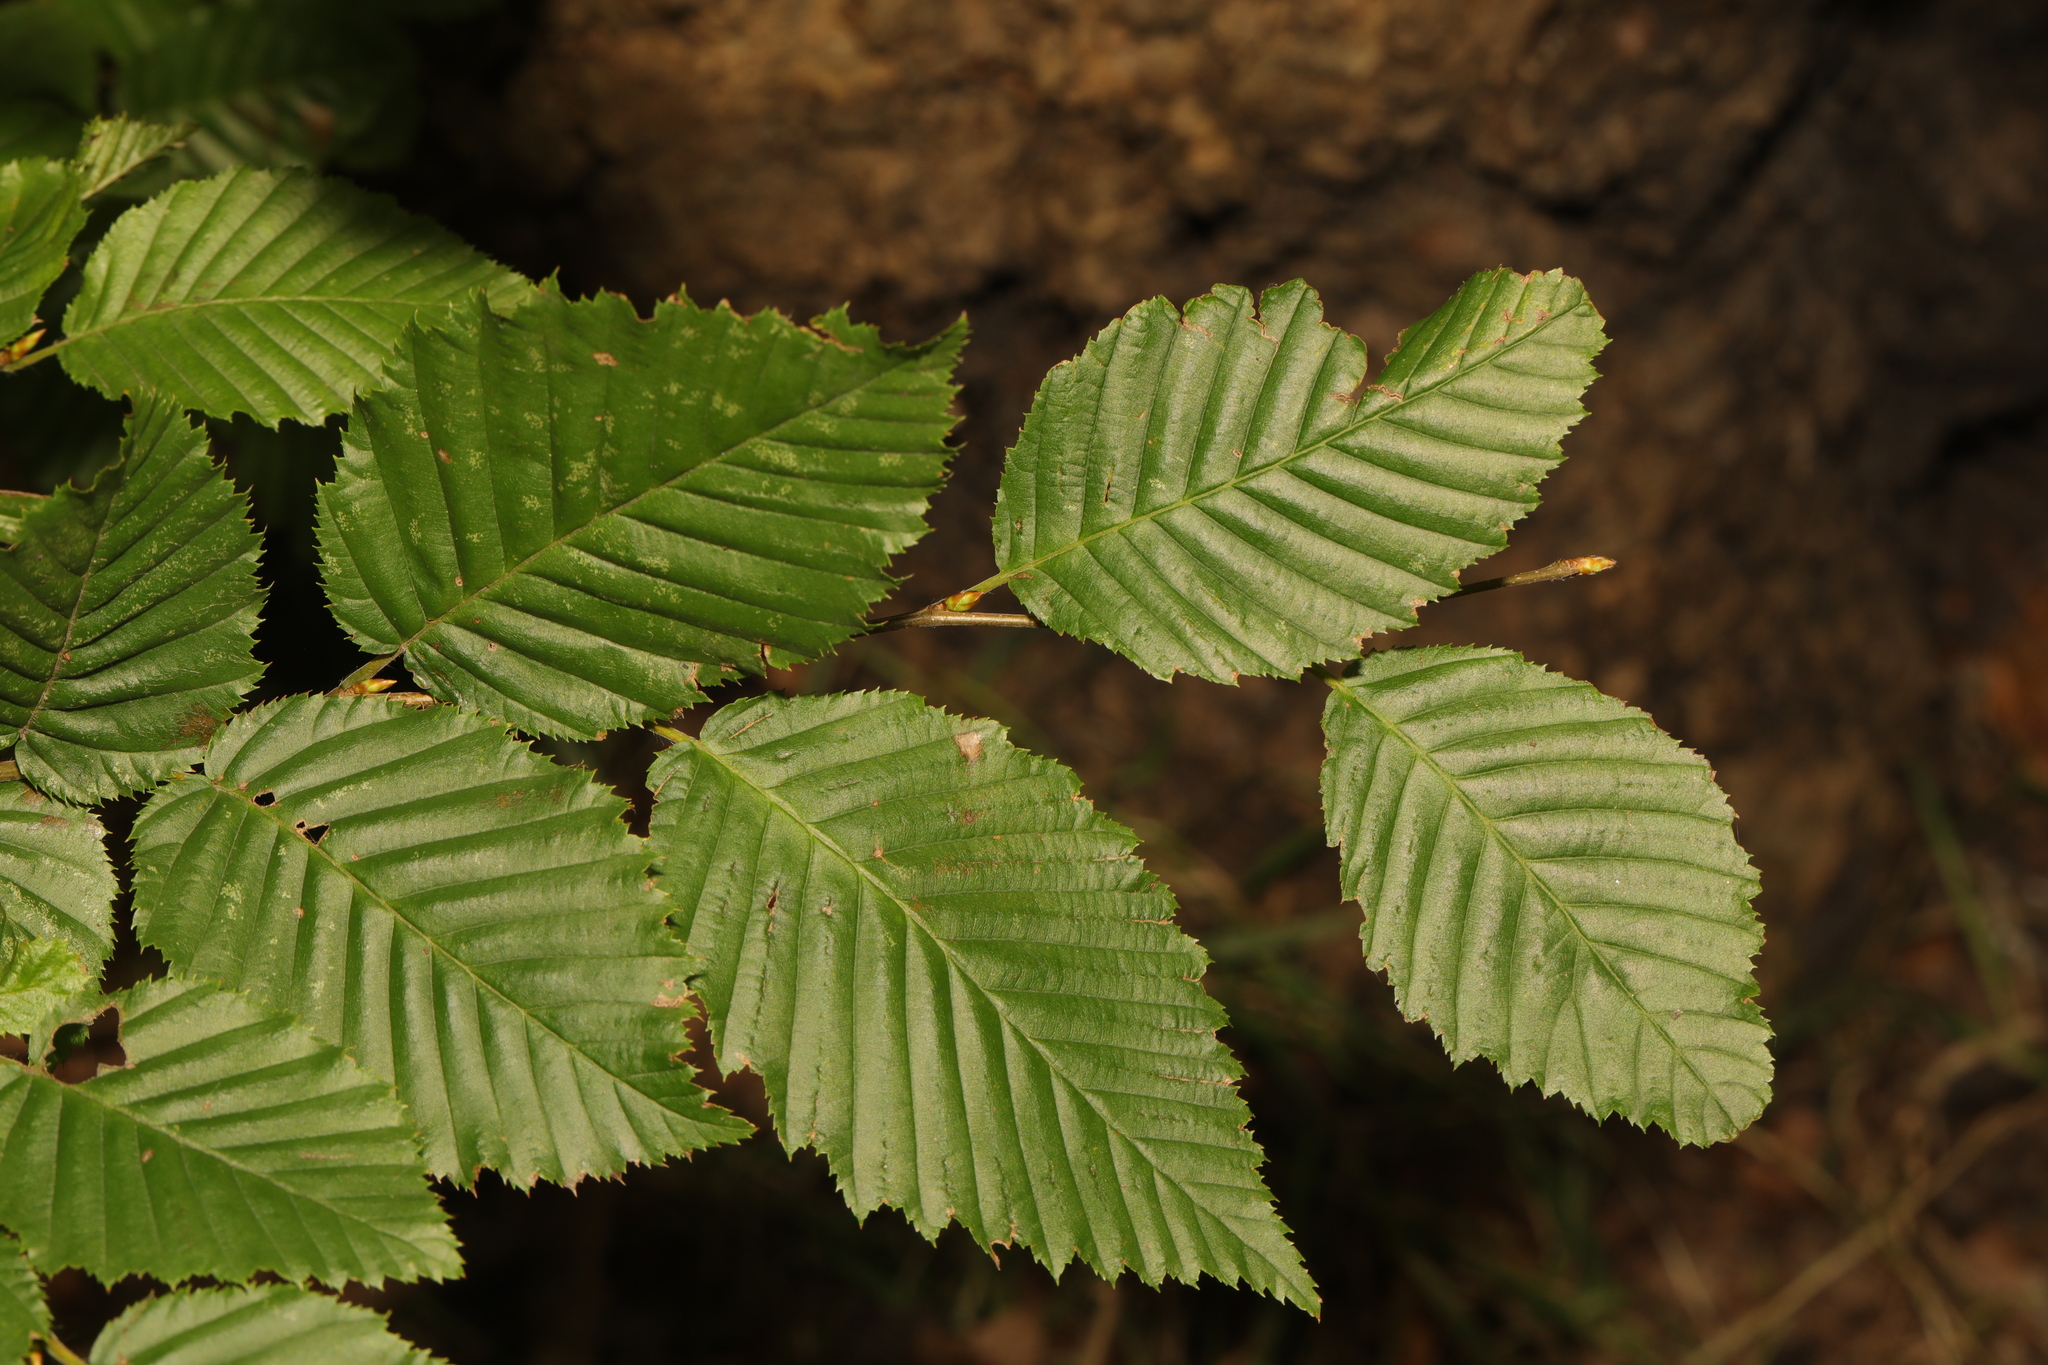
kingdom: Plantae
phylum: Tracheophyta
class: Magnoliopsida
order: Fagales
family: Betulaceae
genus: Carpinus
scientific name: Carpinus betulus
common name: Hornbeam
